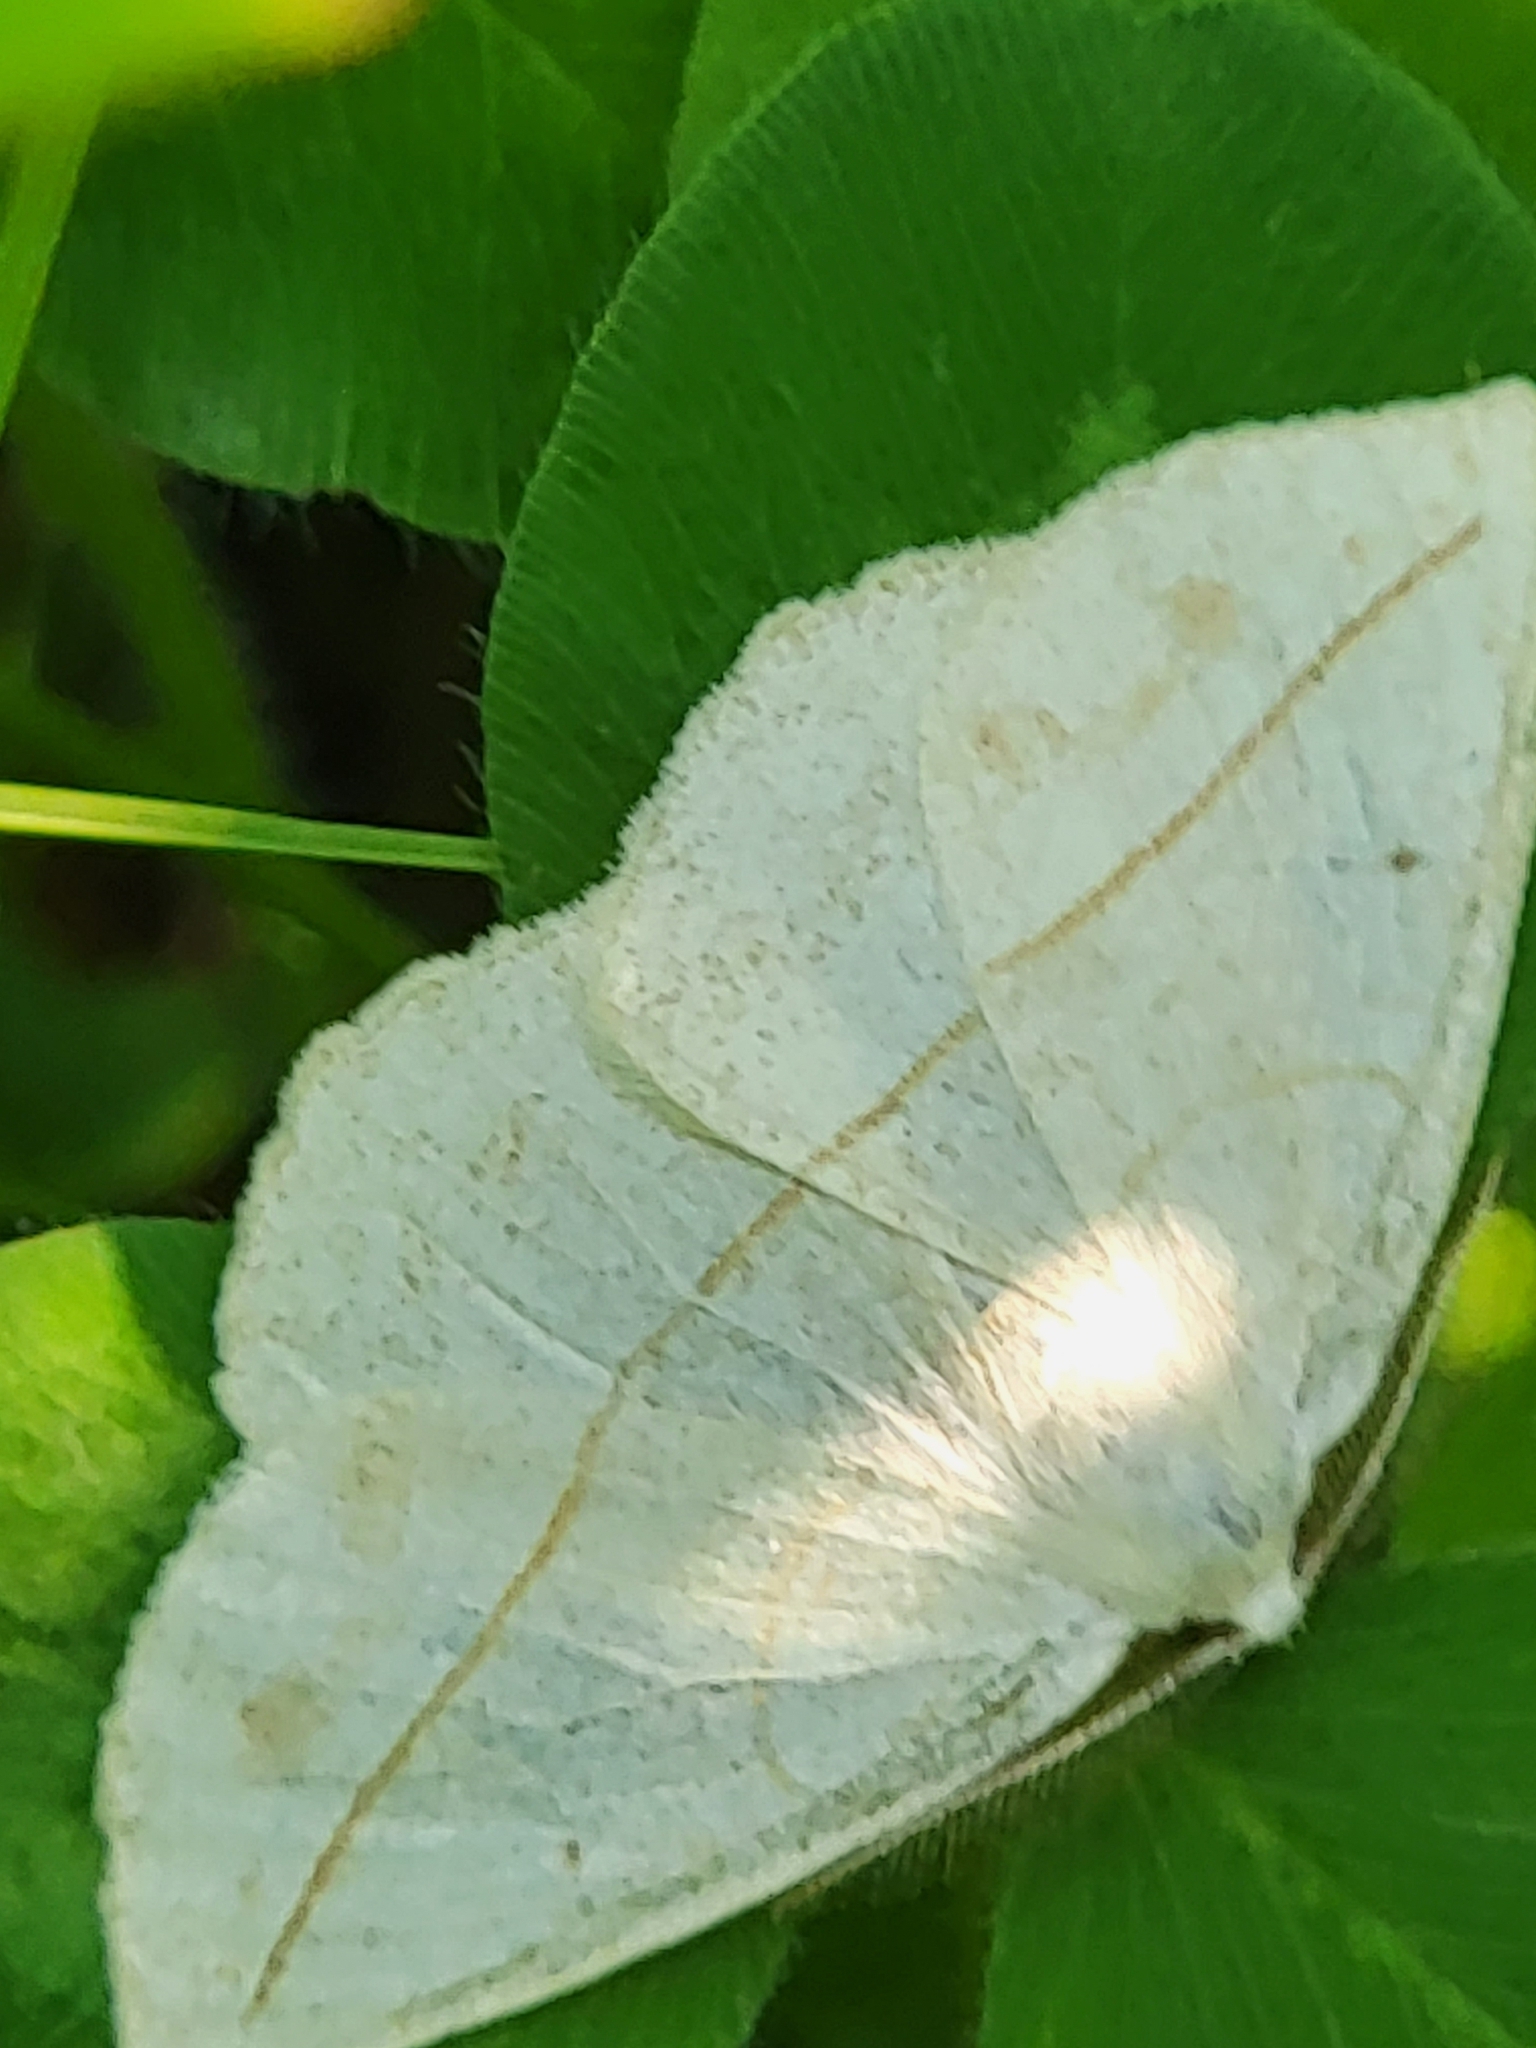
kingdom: Animalia
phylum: Arthropoda
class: Insecta
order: Lepidoptera
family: Geometridae
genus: Eusarca
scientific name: Eusarca confusaria
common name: Confused eusarca
